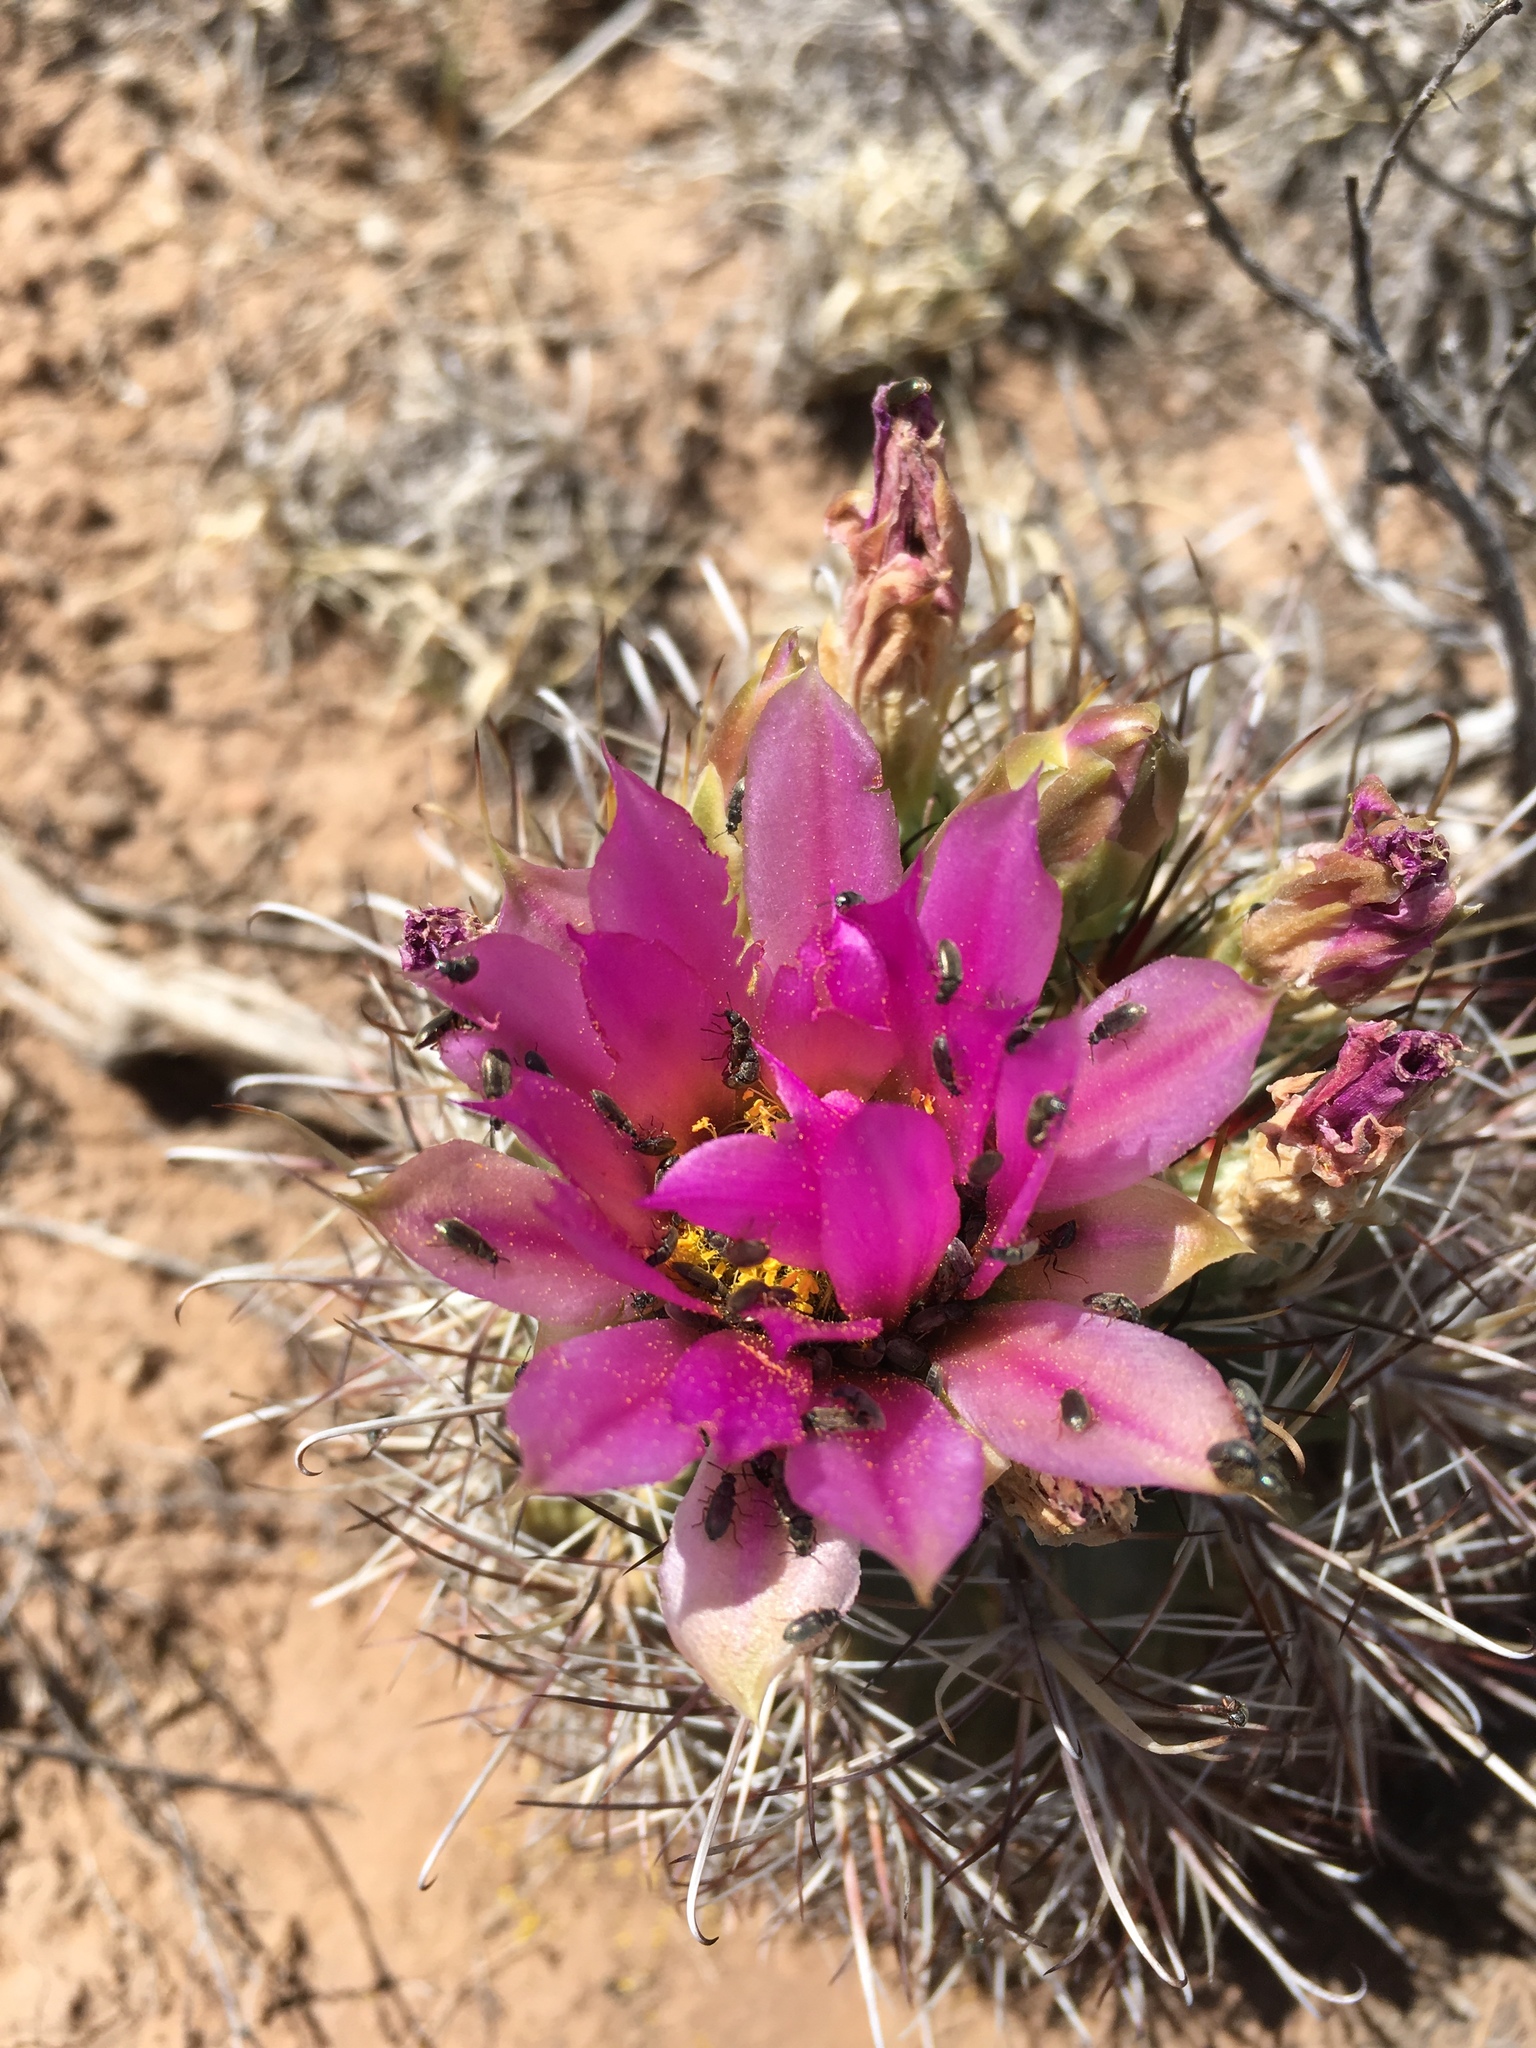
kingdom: Plantae
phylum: Tracheophyta
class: Magnoliopsida
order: Caryophyllales
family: Cactaceae
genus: Sclerocactus
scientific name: Sclerocactus parviflorus
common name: Small-flower fishhook cactus
